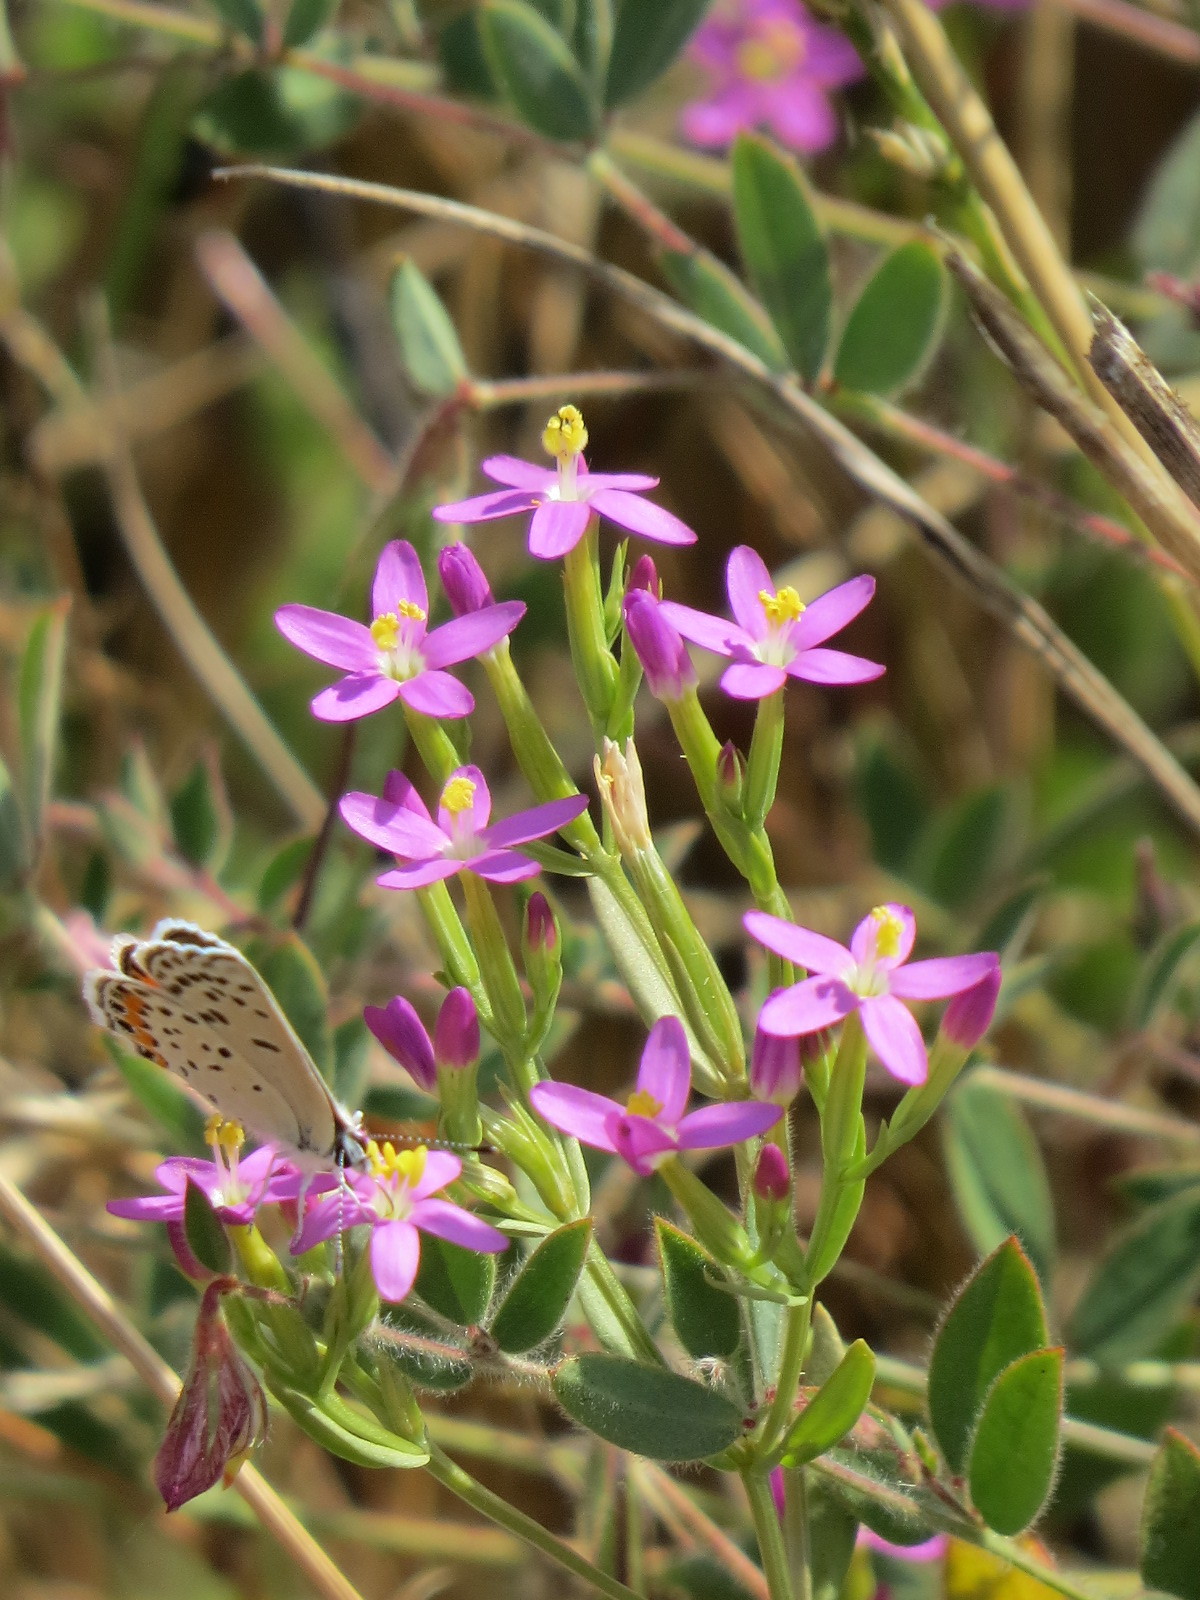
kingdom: Animalia
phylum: Arthropoda
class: Insecta
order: Lepidoptera
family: Lycaenidae
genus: Icaricia
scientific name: Icaricia acmon
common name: Acmon blue
